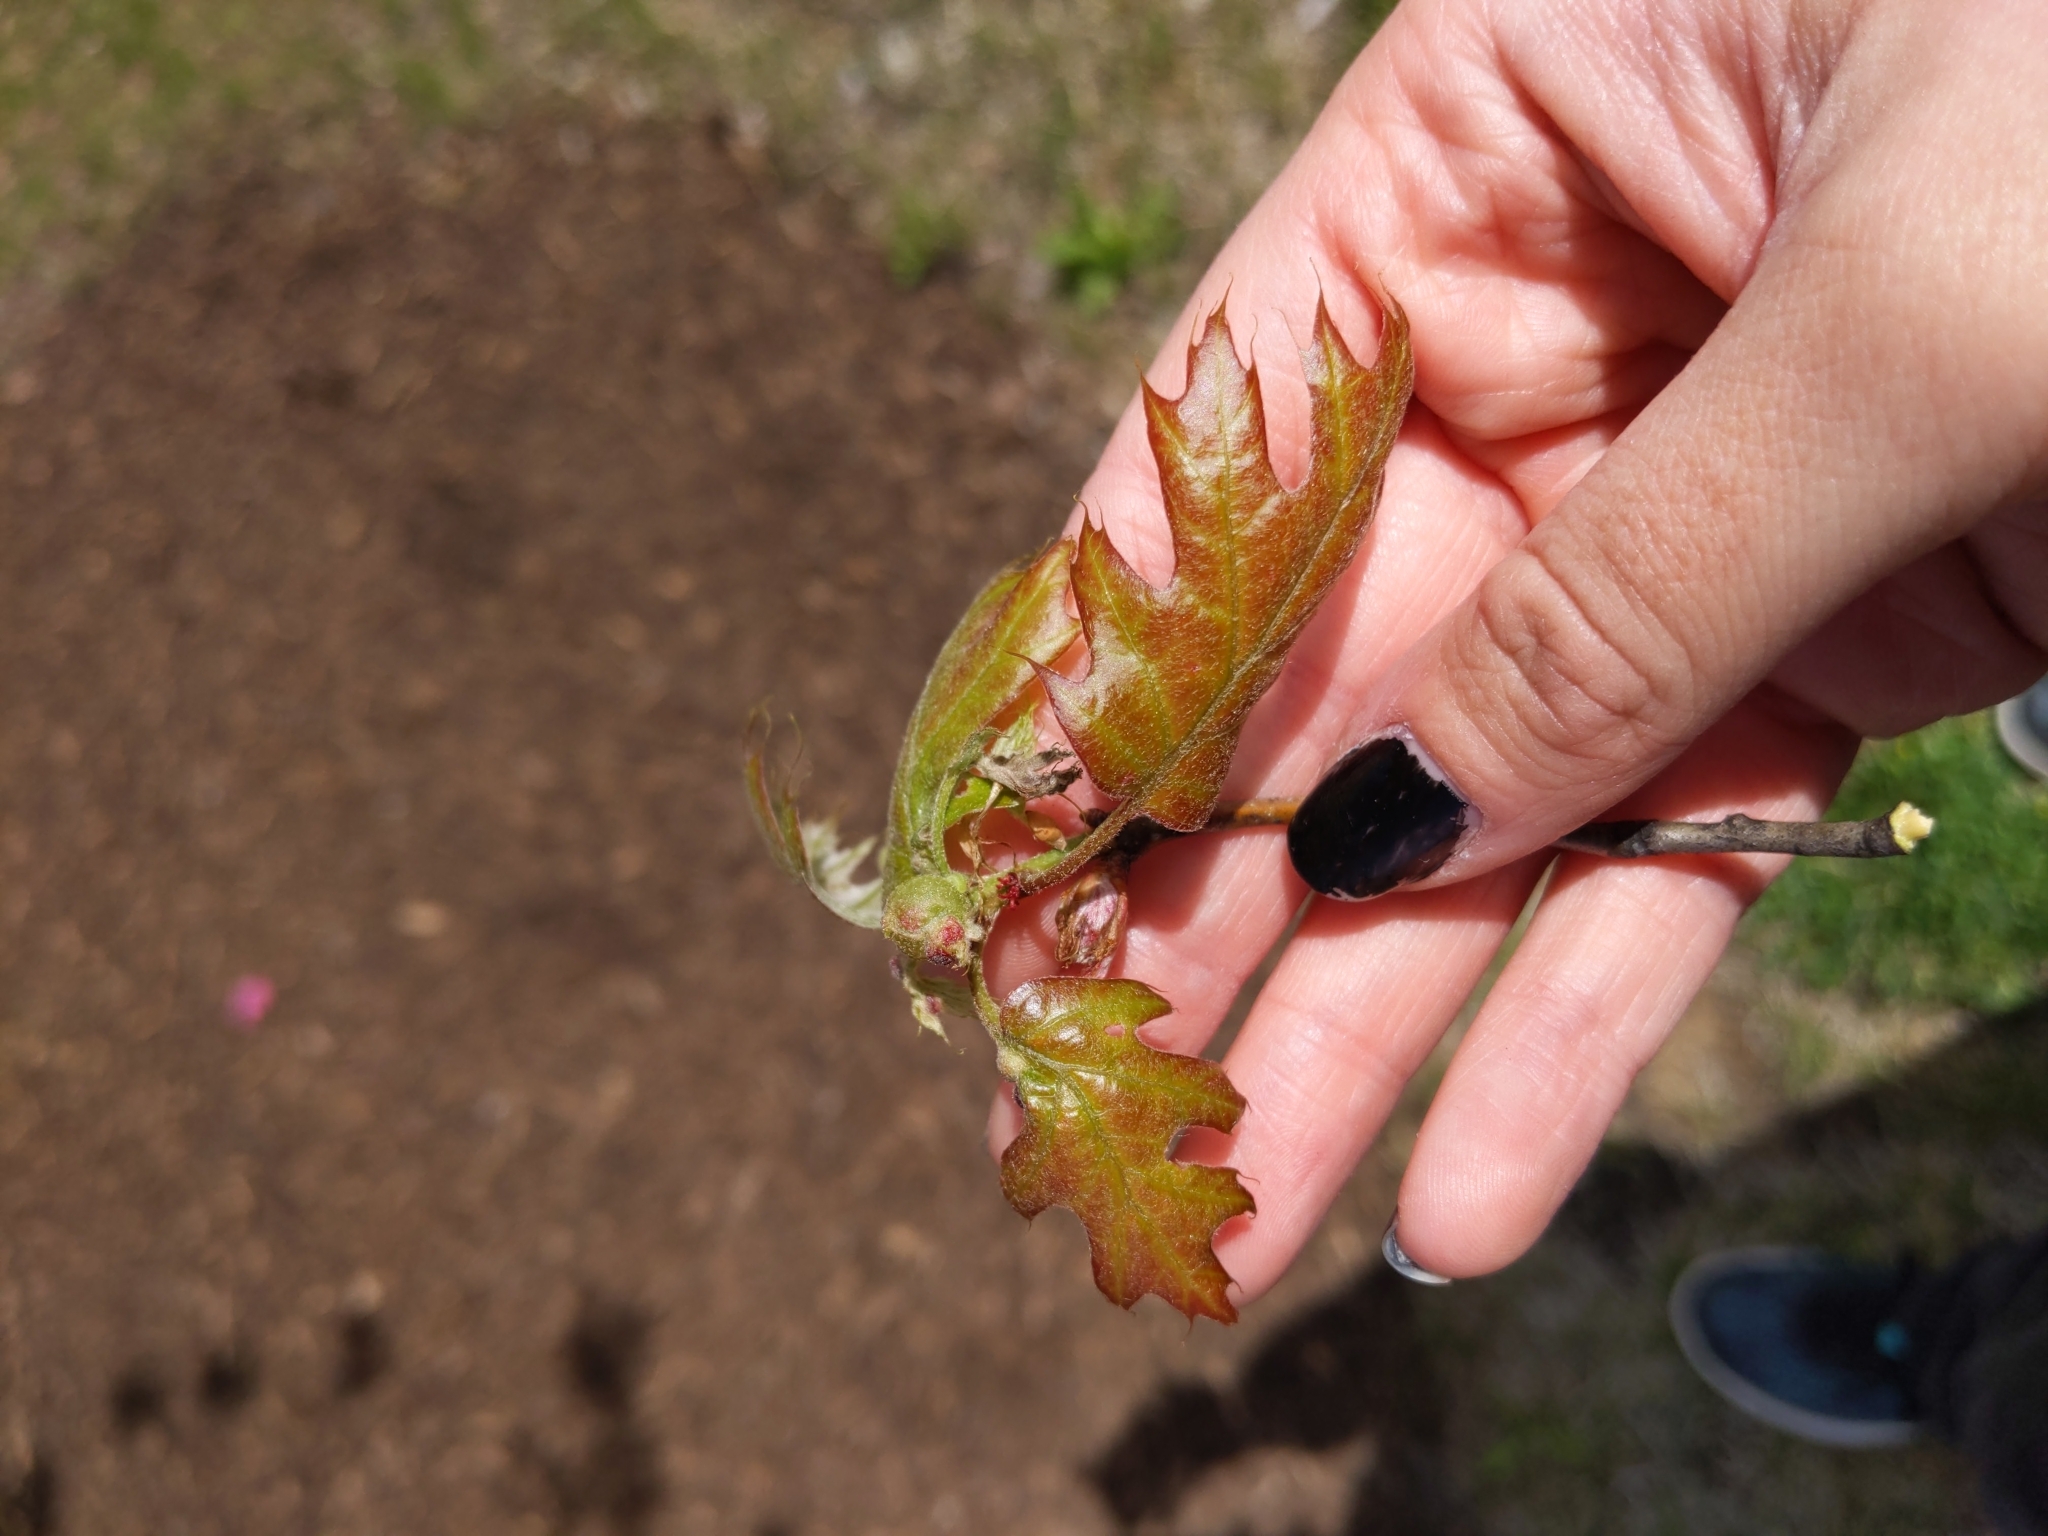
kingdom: Animalia
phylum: Arthropoda
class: Insecta
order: Hymenoptera
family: Cynipidae
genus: Dryocosmus
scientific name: Dryocosmus quercuspalustris
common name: Succulent oak gall wasp
